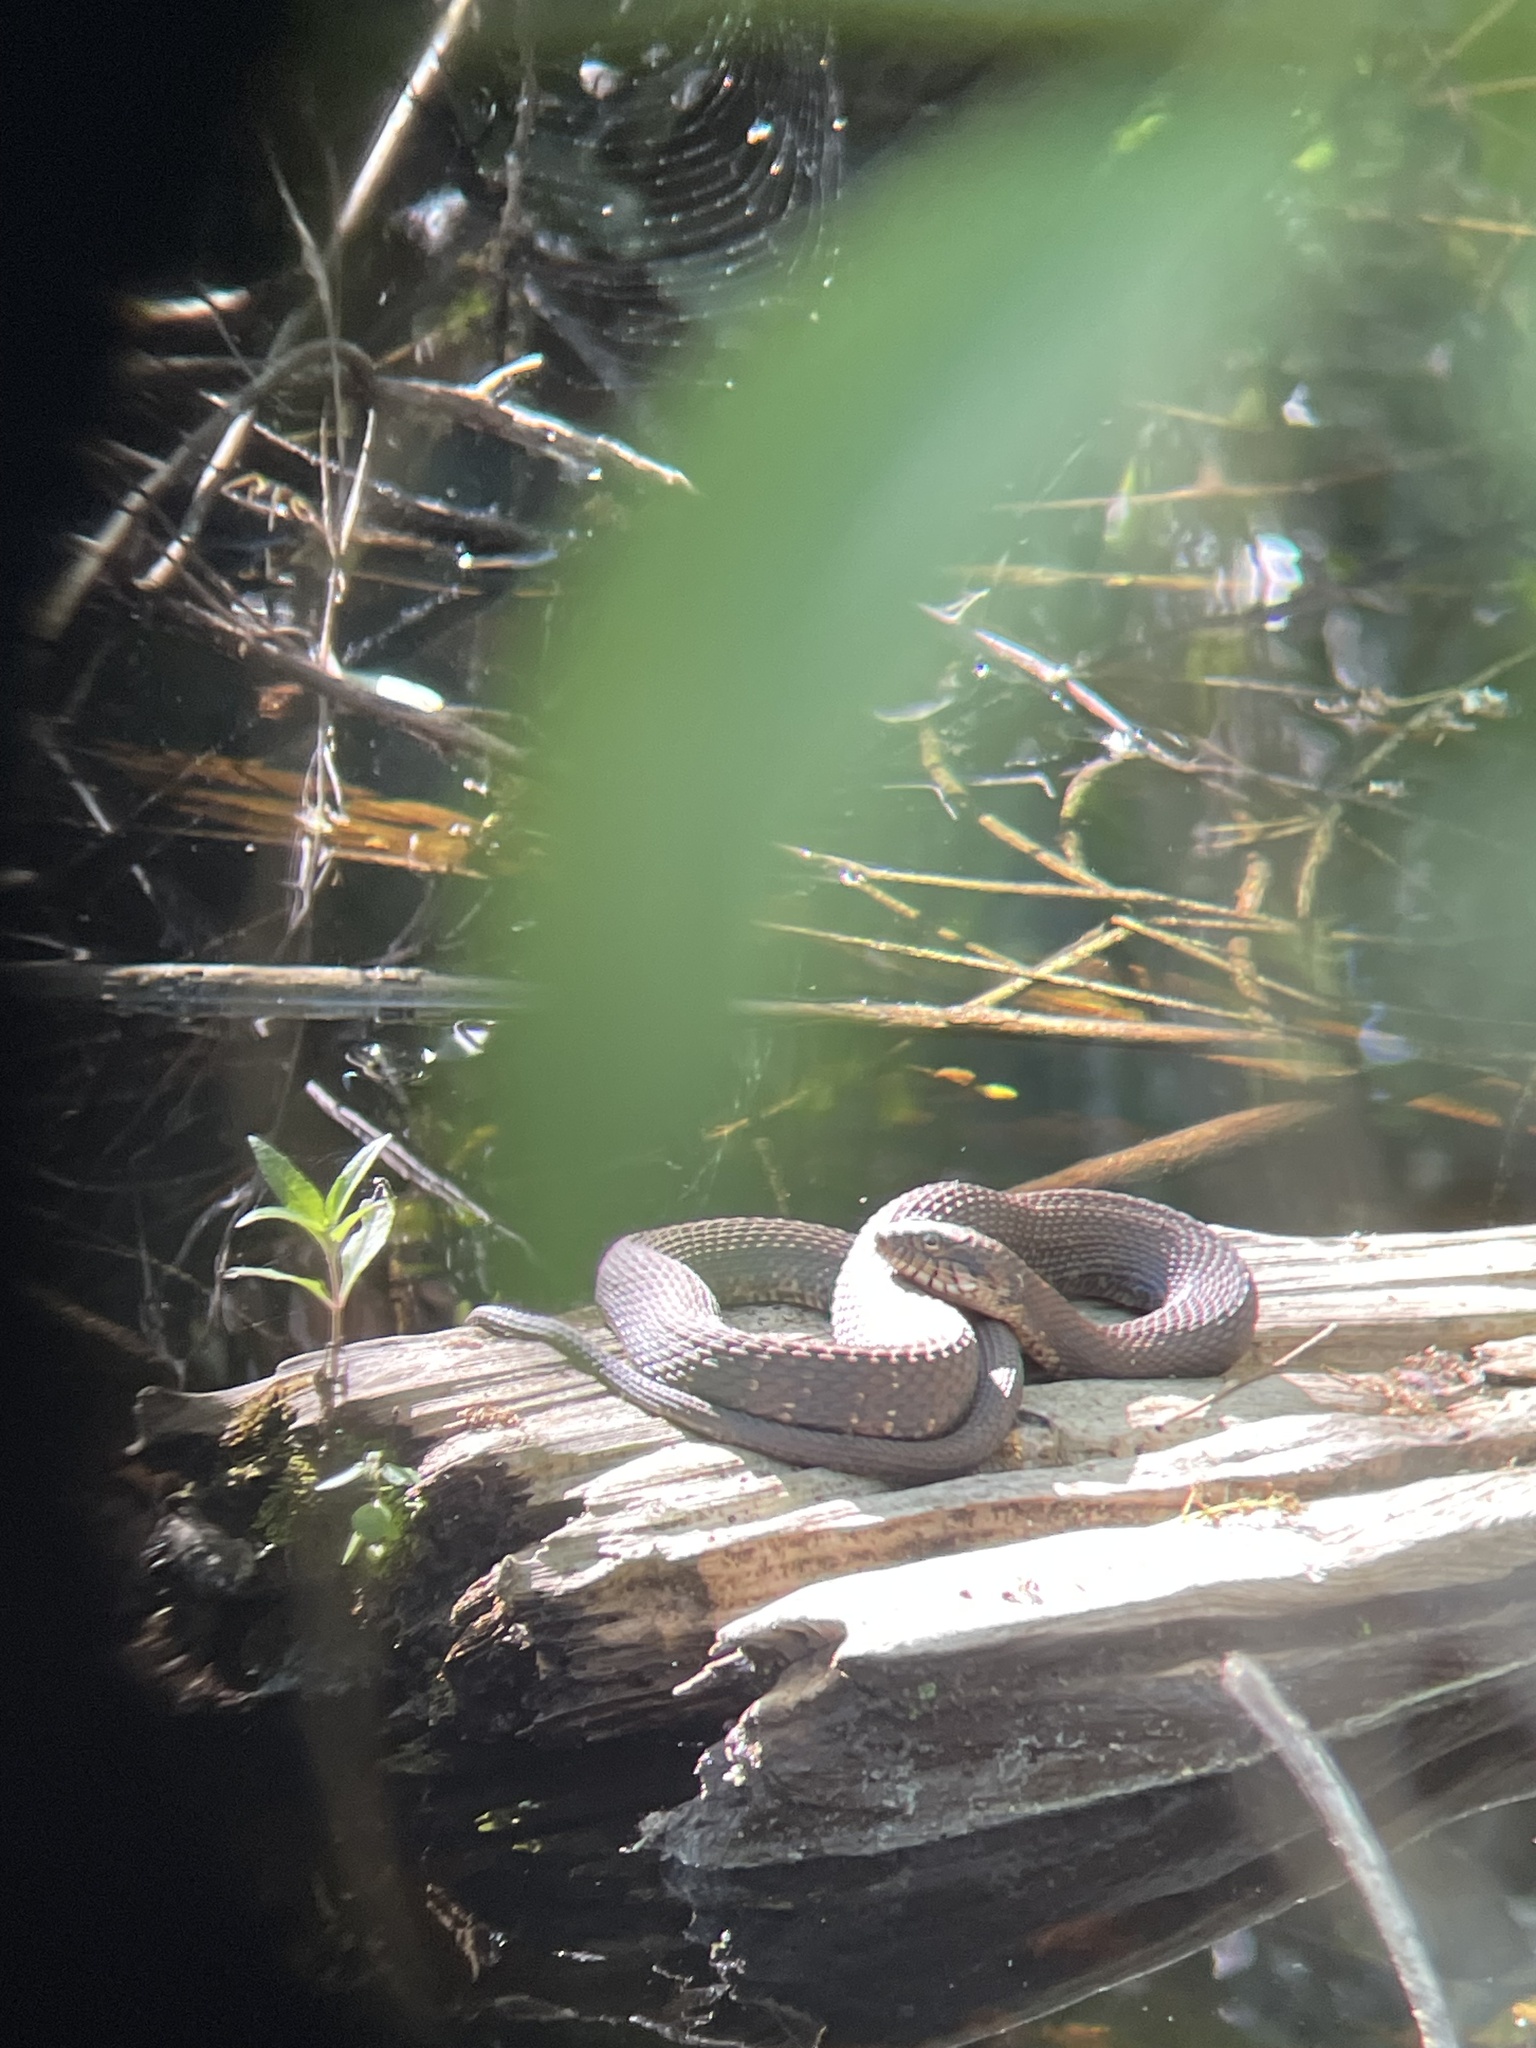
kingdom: Animalia
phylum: Chordata
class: Squamata
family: Colubridae
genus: Nerodia
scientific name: Nerodia fasciata
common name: Southern water snake
